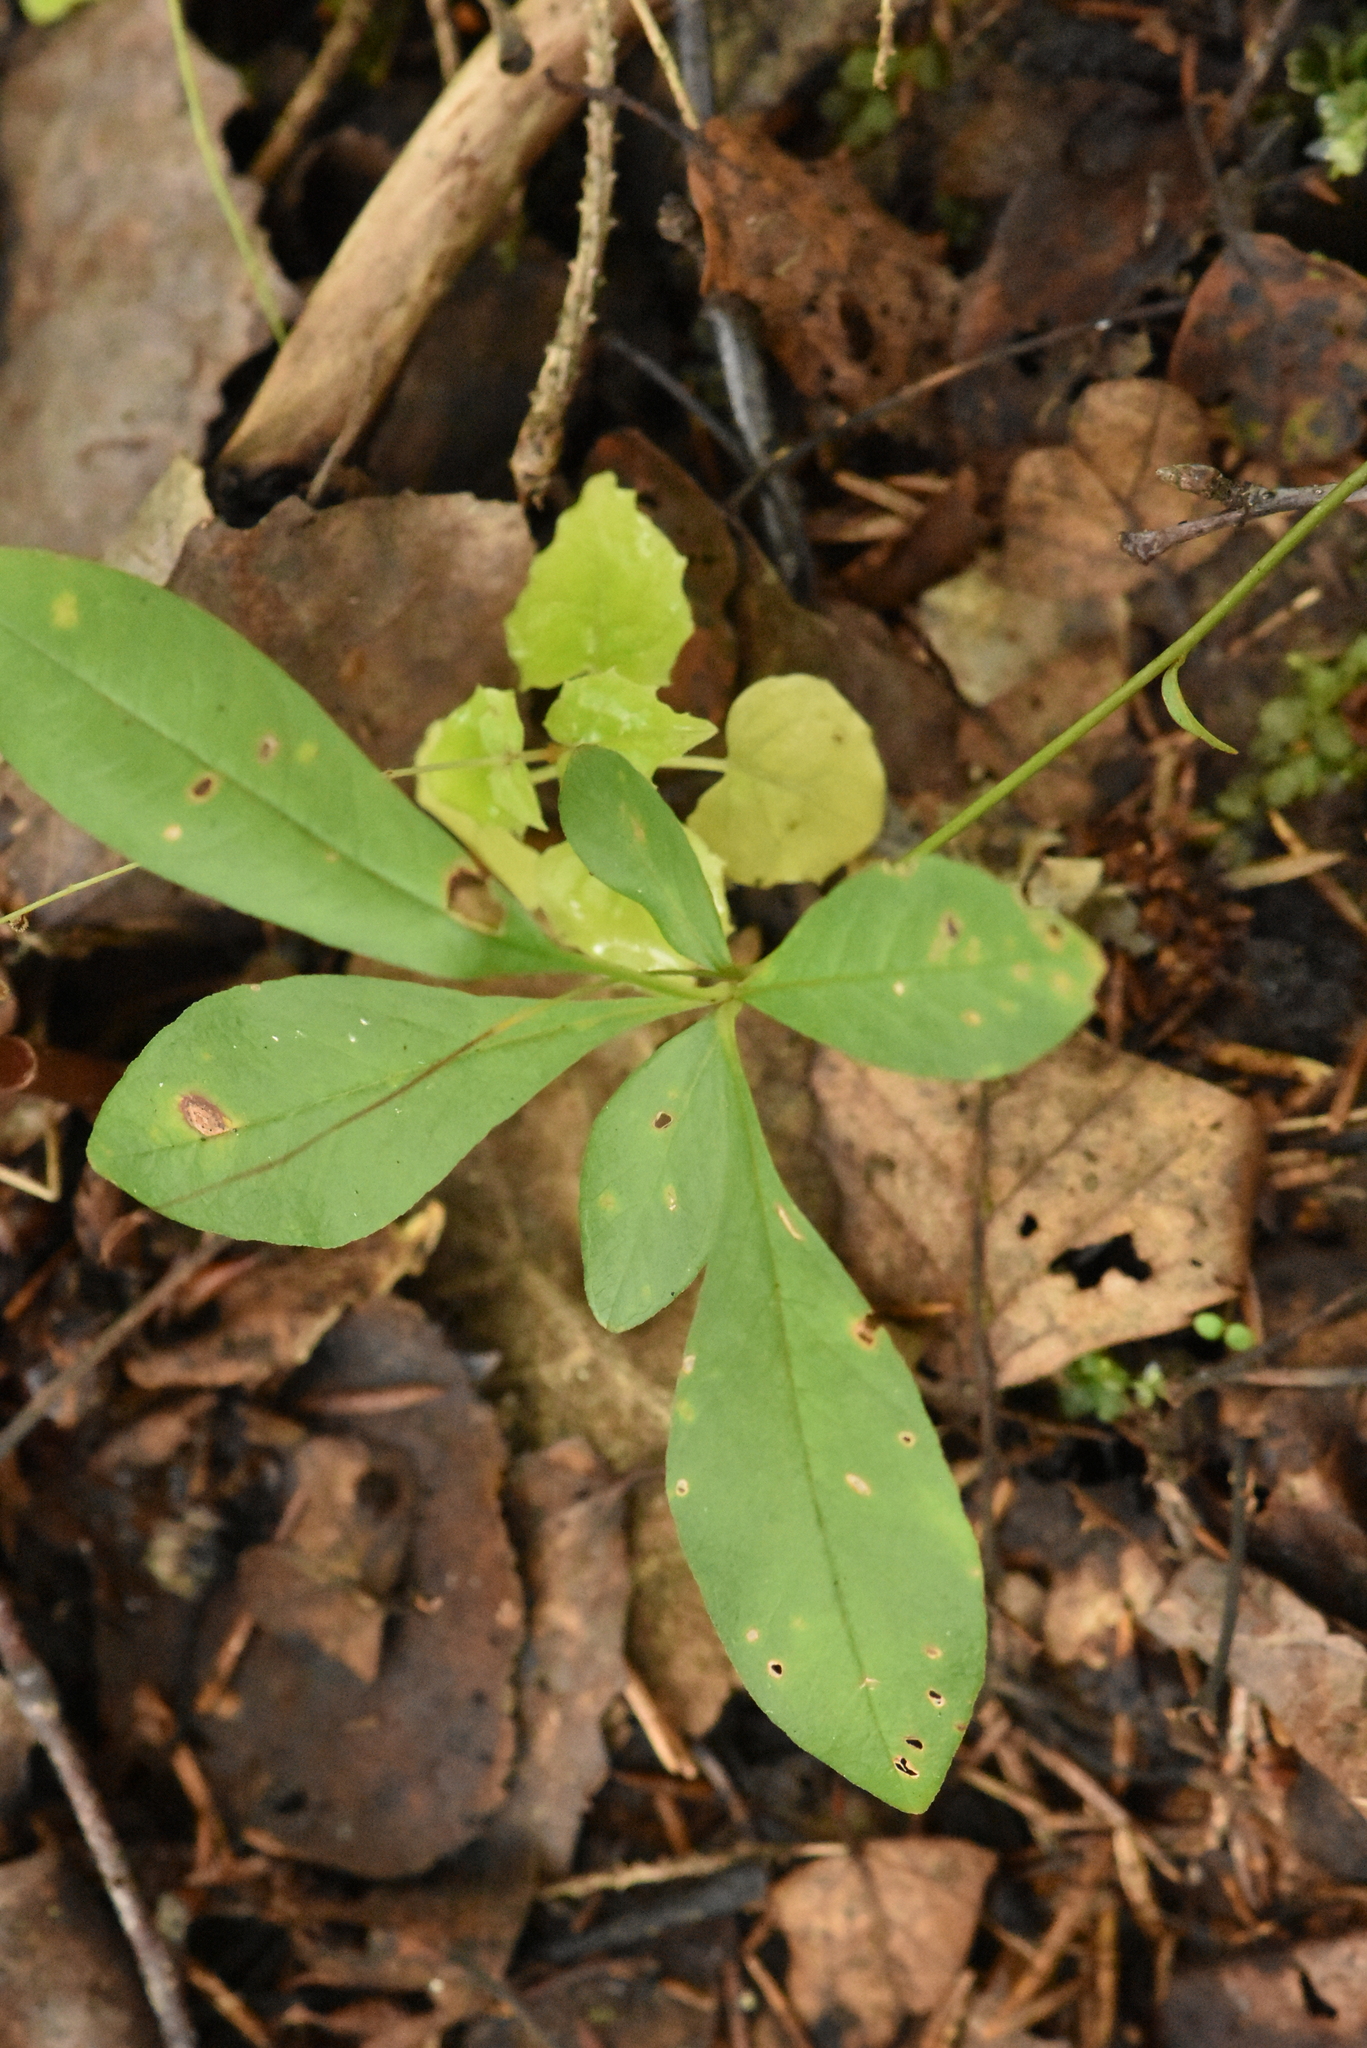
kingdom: Plantae
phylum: Tracheophyta
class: Magnoliopsida
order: Ericales
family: Primulaceae
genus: Lysimachia
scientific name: Lysimachia europaea
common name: Arctic starflower
